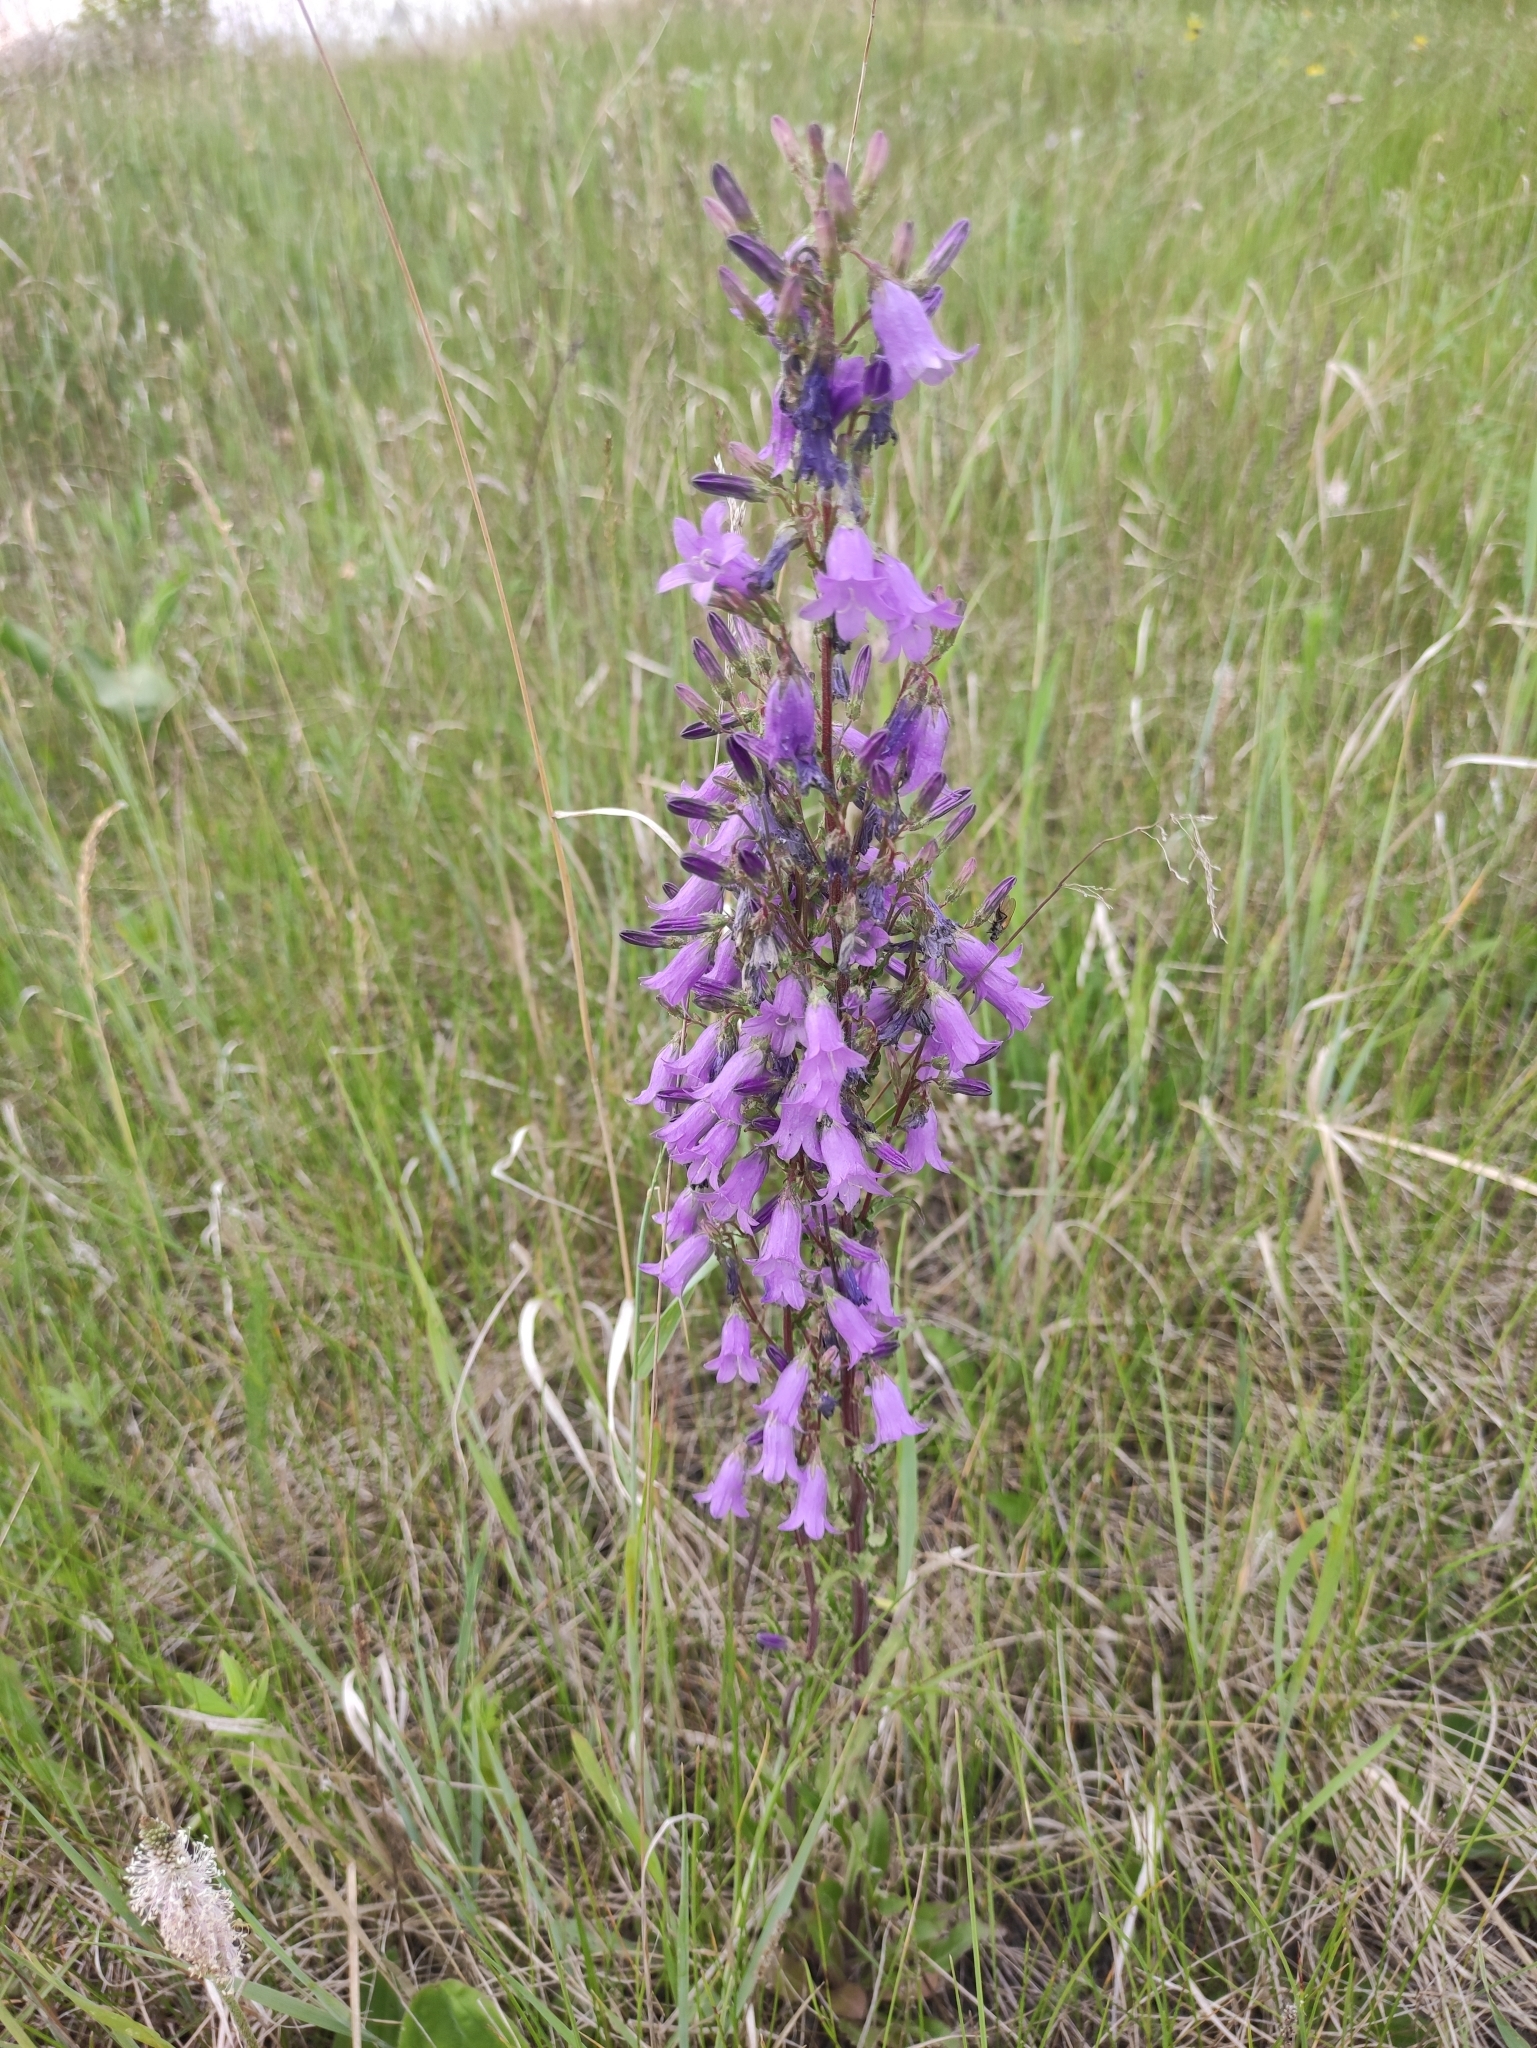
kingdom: Plantae
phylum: Tracheophyta
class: Magnoliopsida
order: Asterales
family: Campanulaceae
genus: Campanula
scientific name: Campanula sibirica
